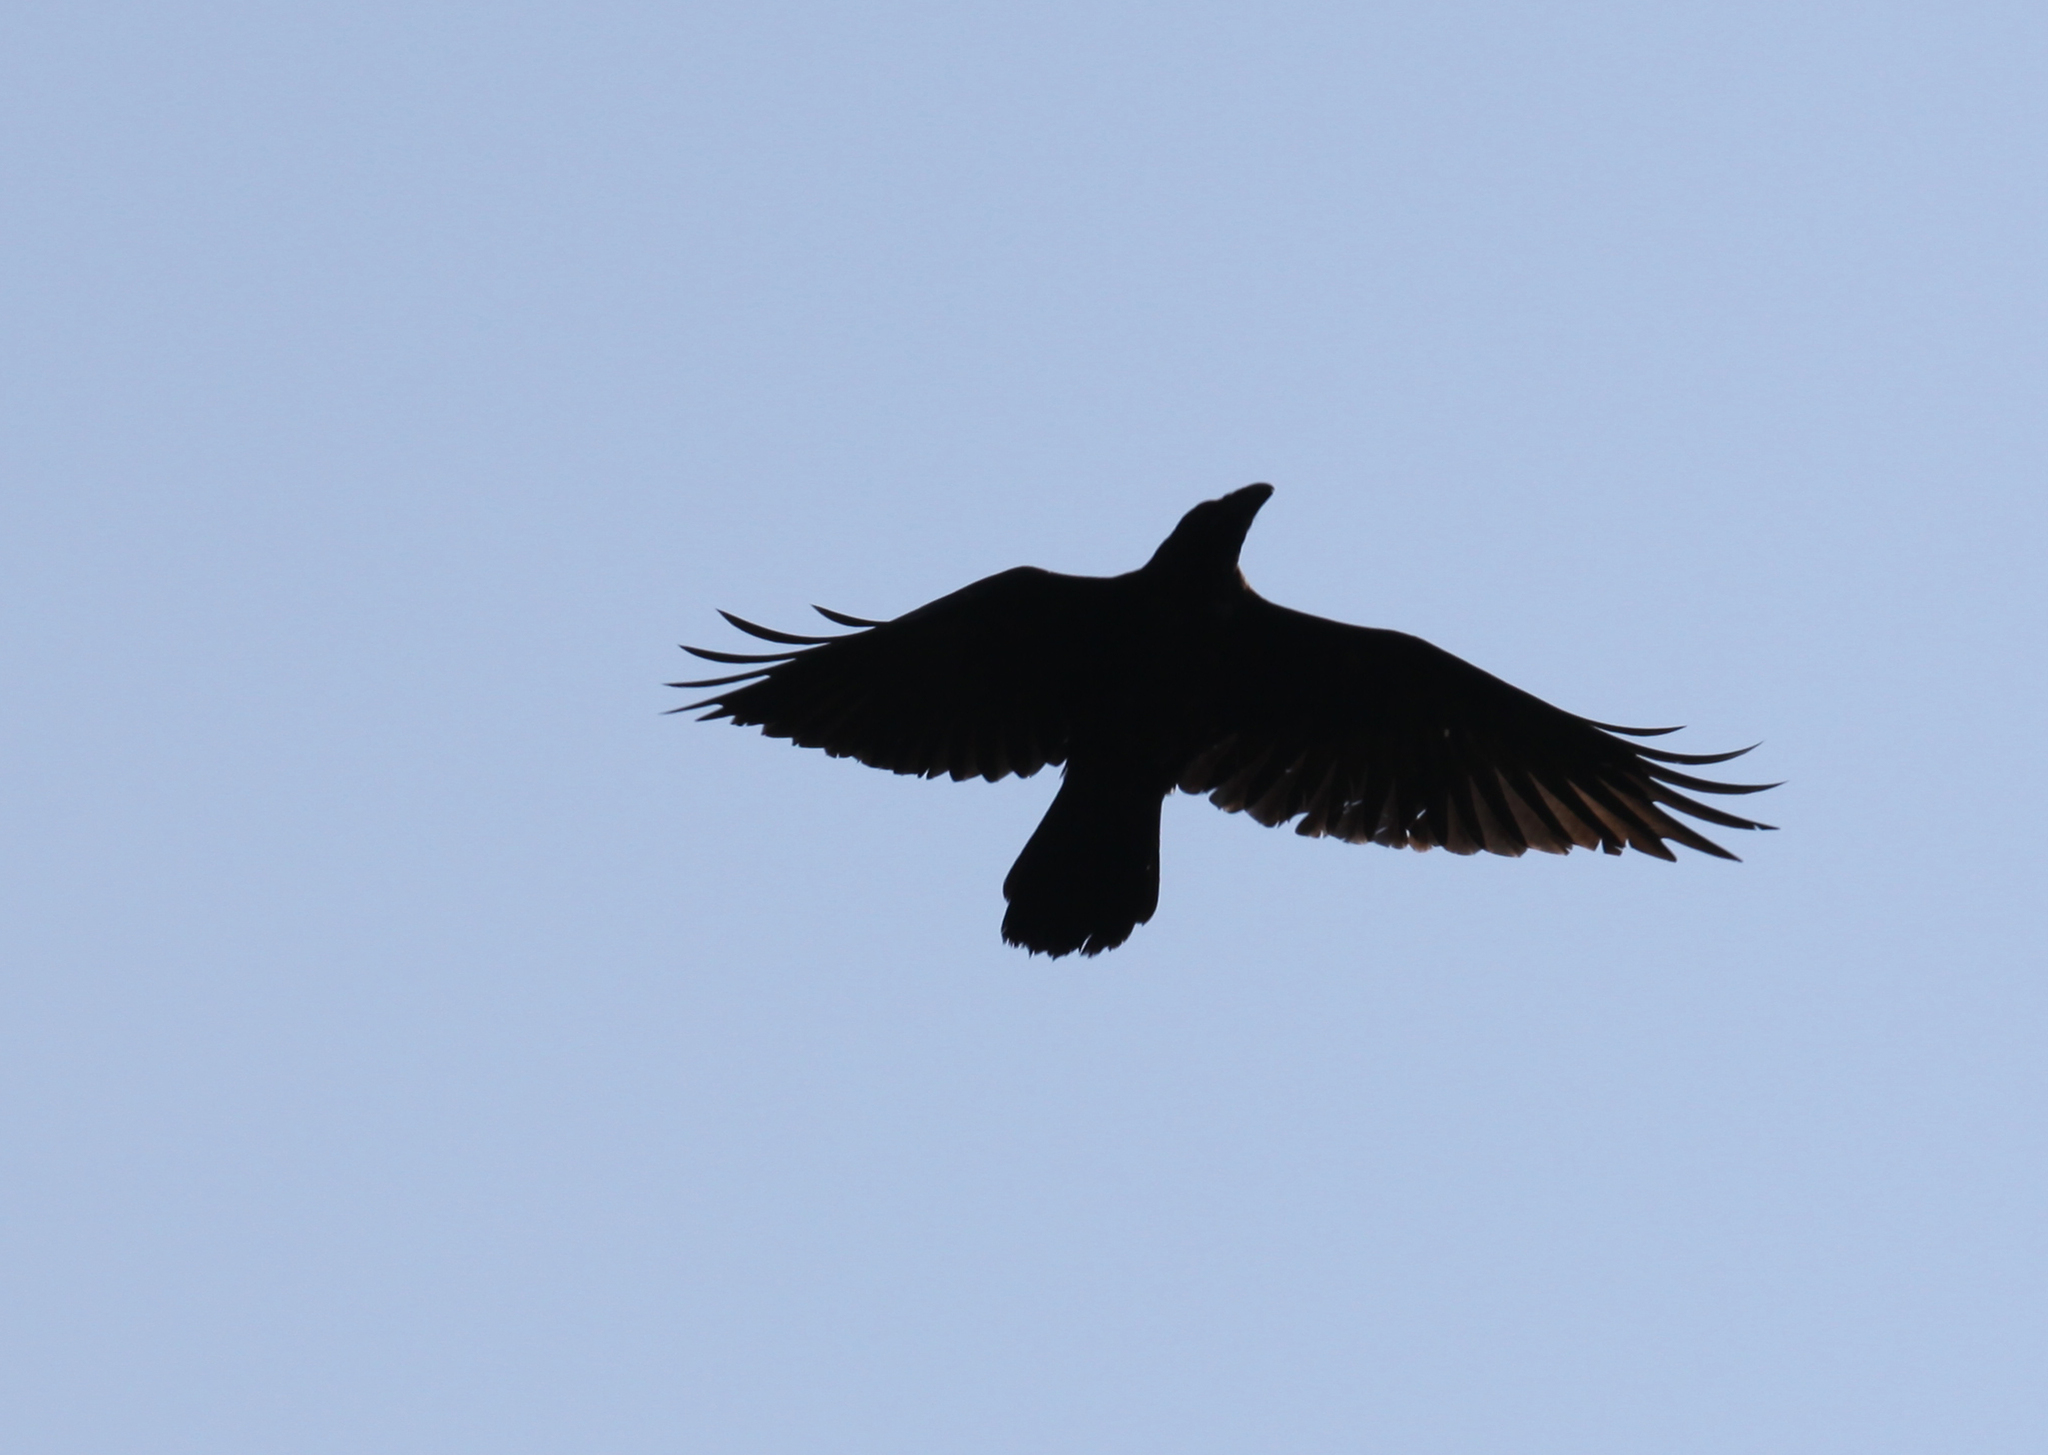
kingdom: Animalia
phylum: Chordata
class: Aves
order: Passeriformes
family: Corvidae
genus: Corvus
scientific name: Corvus corax
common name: Common raven
